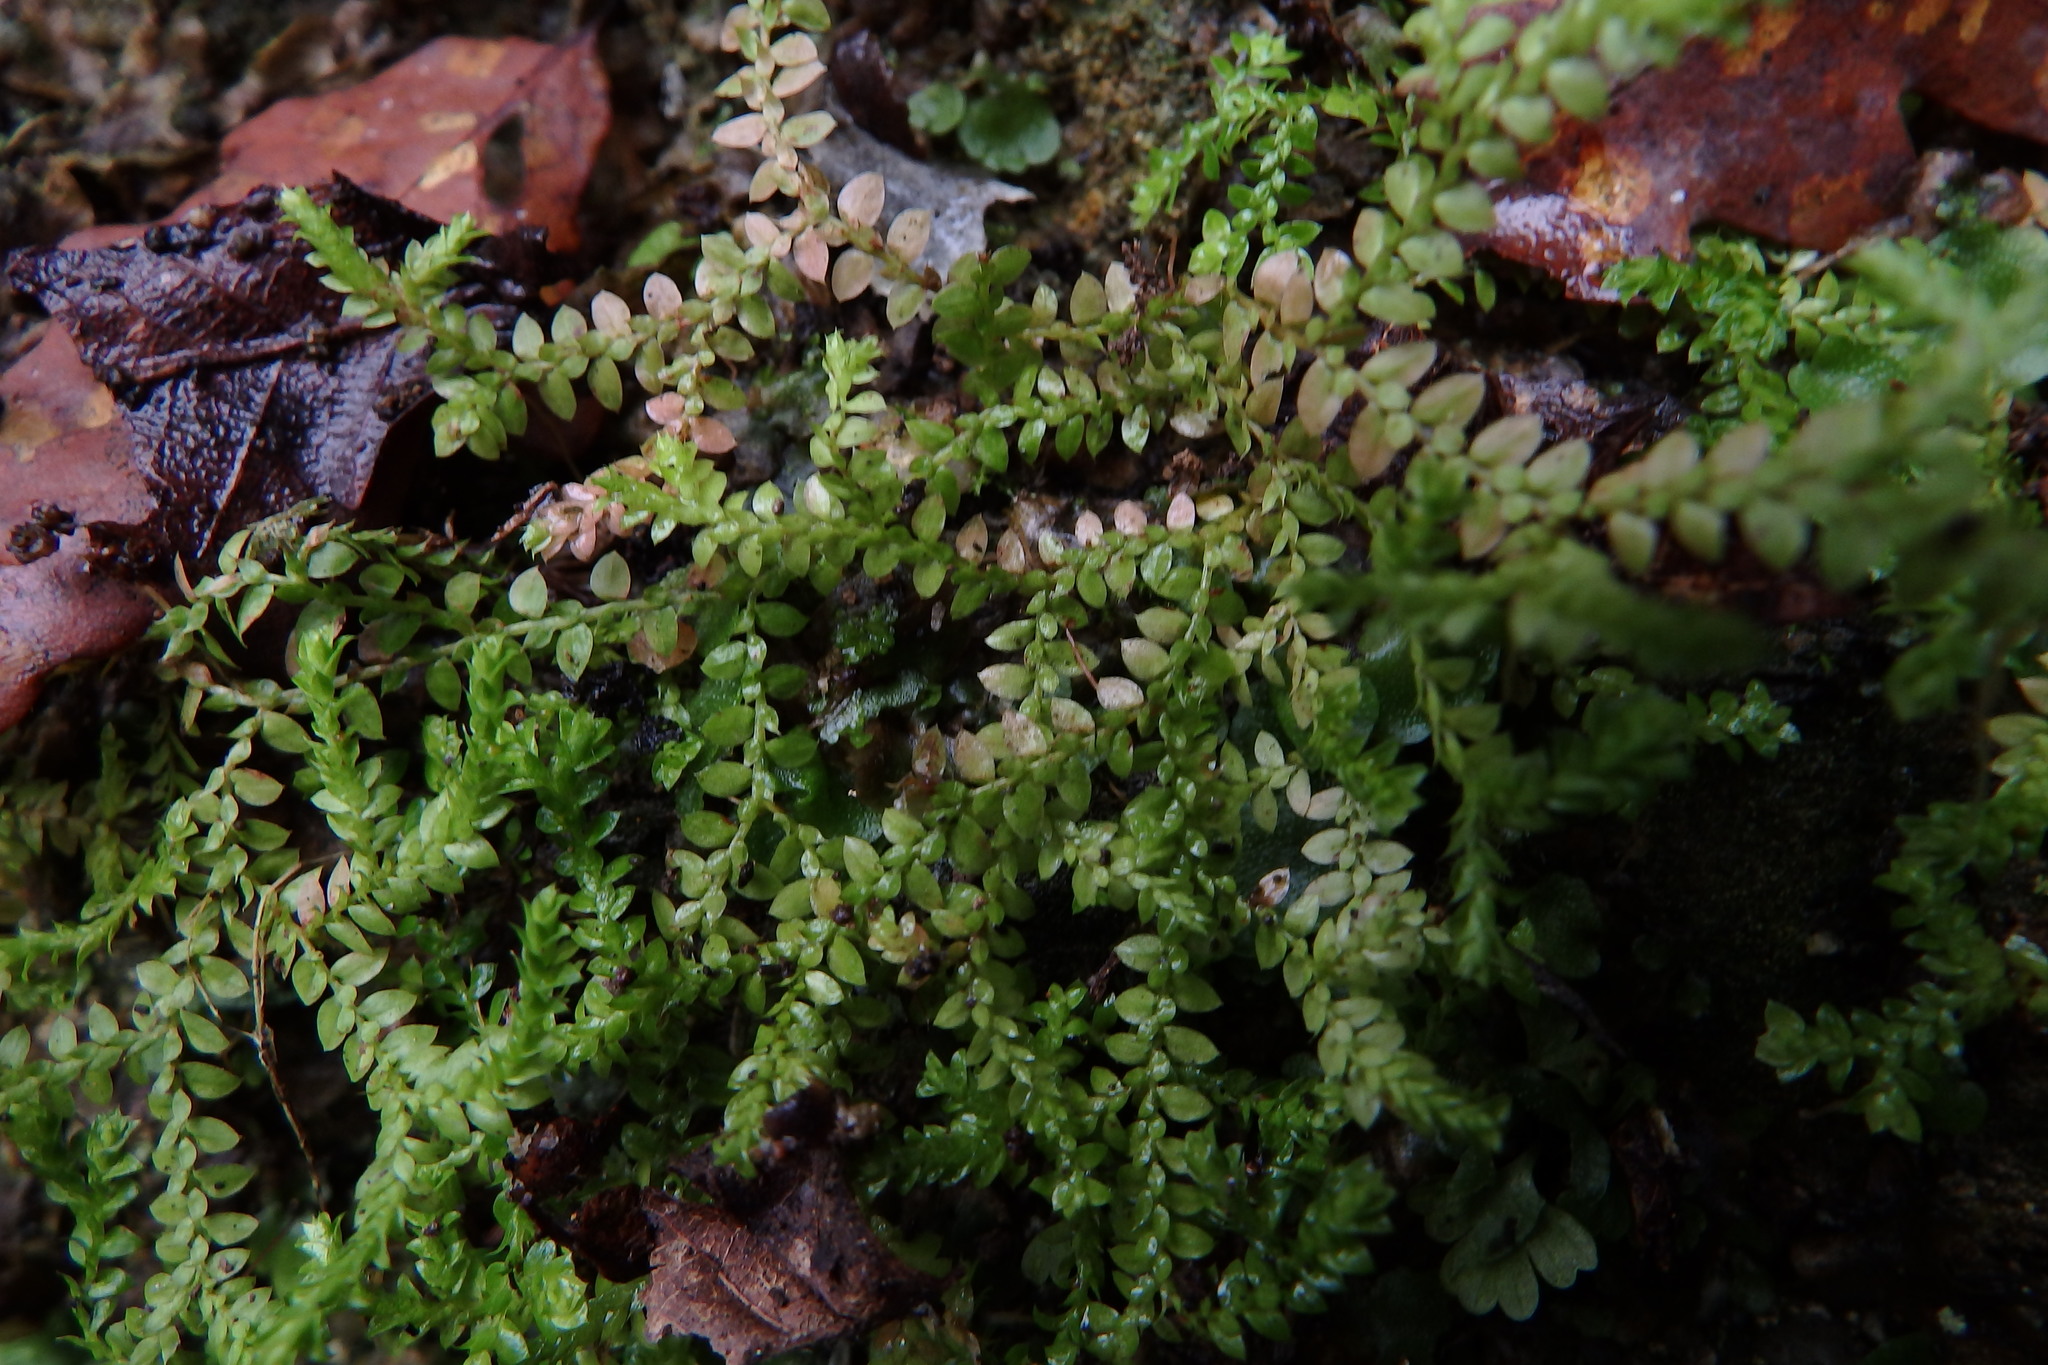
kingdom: Plantae
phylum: Tracheophyta
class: Lycopodiopsida
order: Selaginellales
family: Selaginellaceae
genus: Selaginella
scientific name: Selaginella denticulata
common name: Toothed-leaved clubmoss
